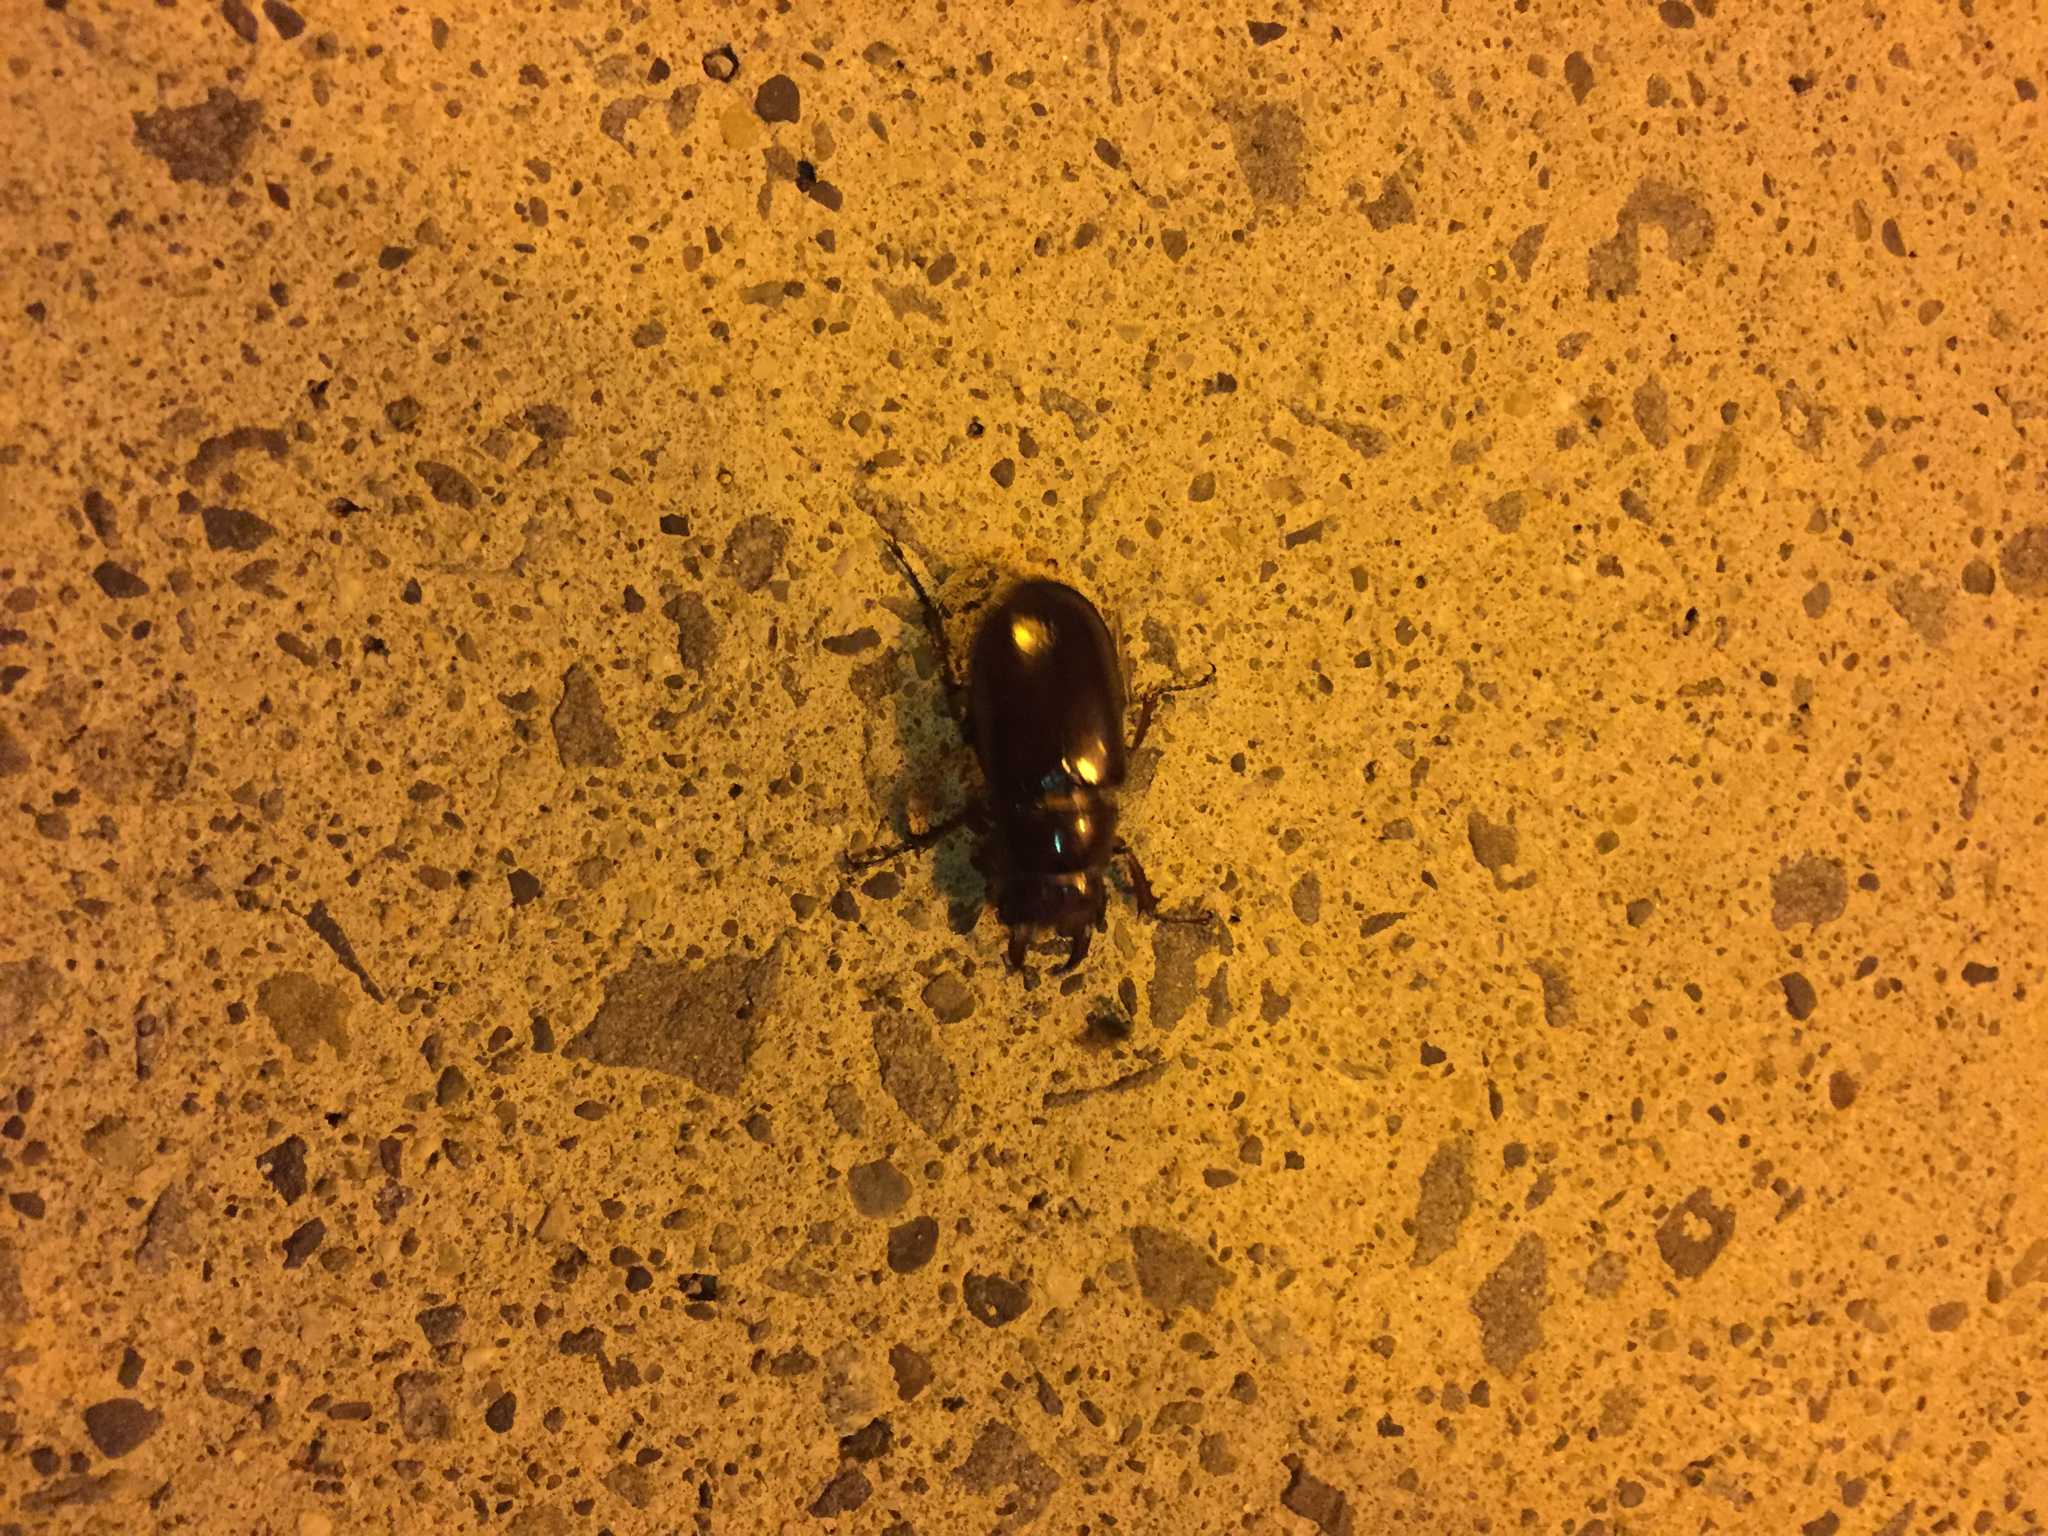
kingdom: Animalia
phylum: Arthropoda
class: Insecta
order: Coleoptera
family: Lucanidae
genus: Lucanus
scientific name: Lucanus capreolus
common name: Stag beetle
